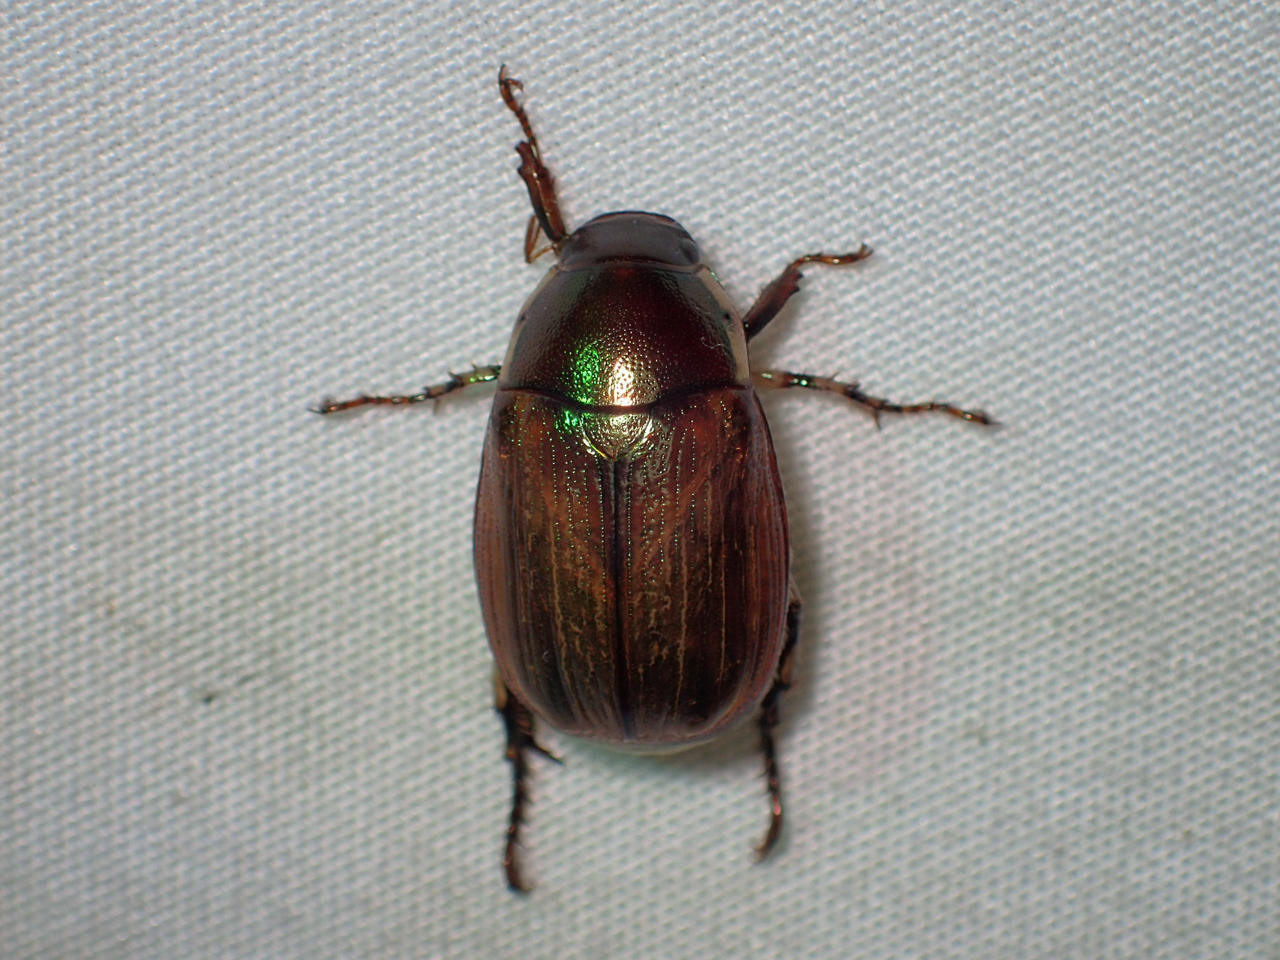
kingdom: Animalia
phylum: Arthropoda
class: Insecta
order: Coleoptera
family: Scarabaeidae
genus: Callistethus
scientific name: Callistethus marginatus
